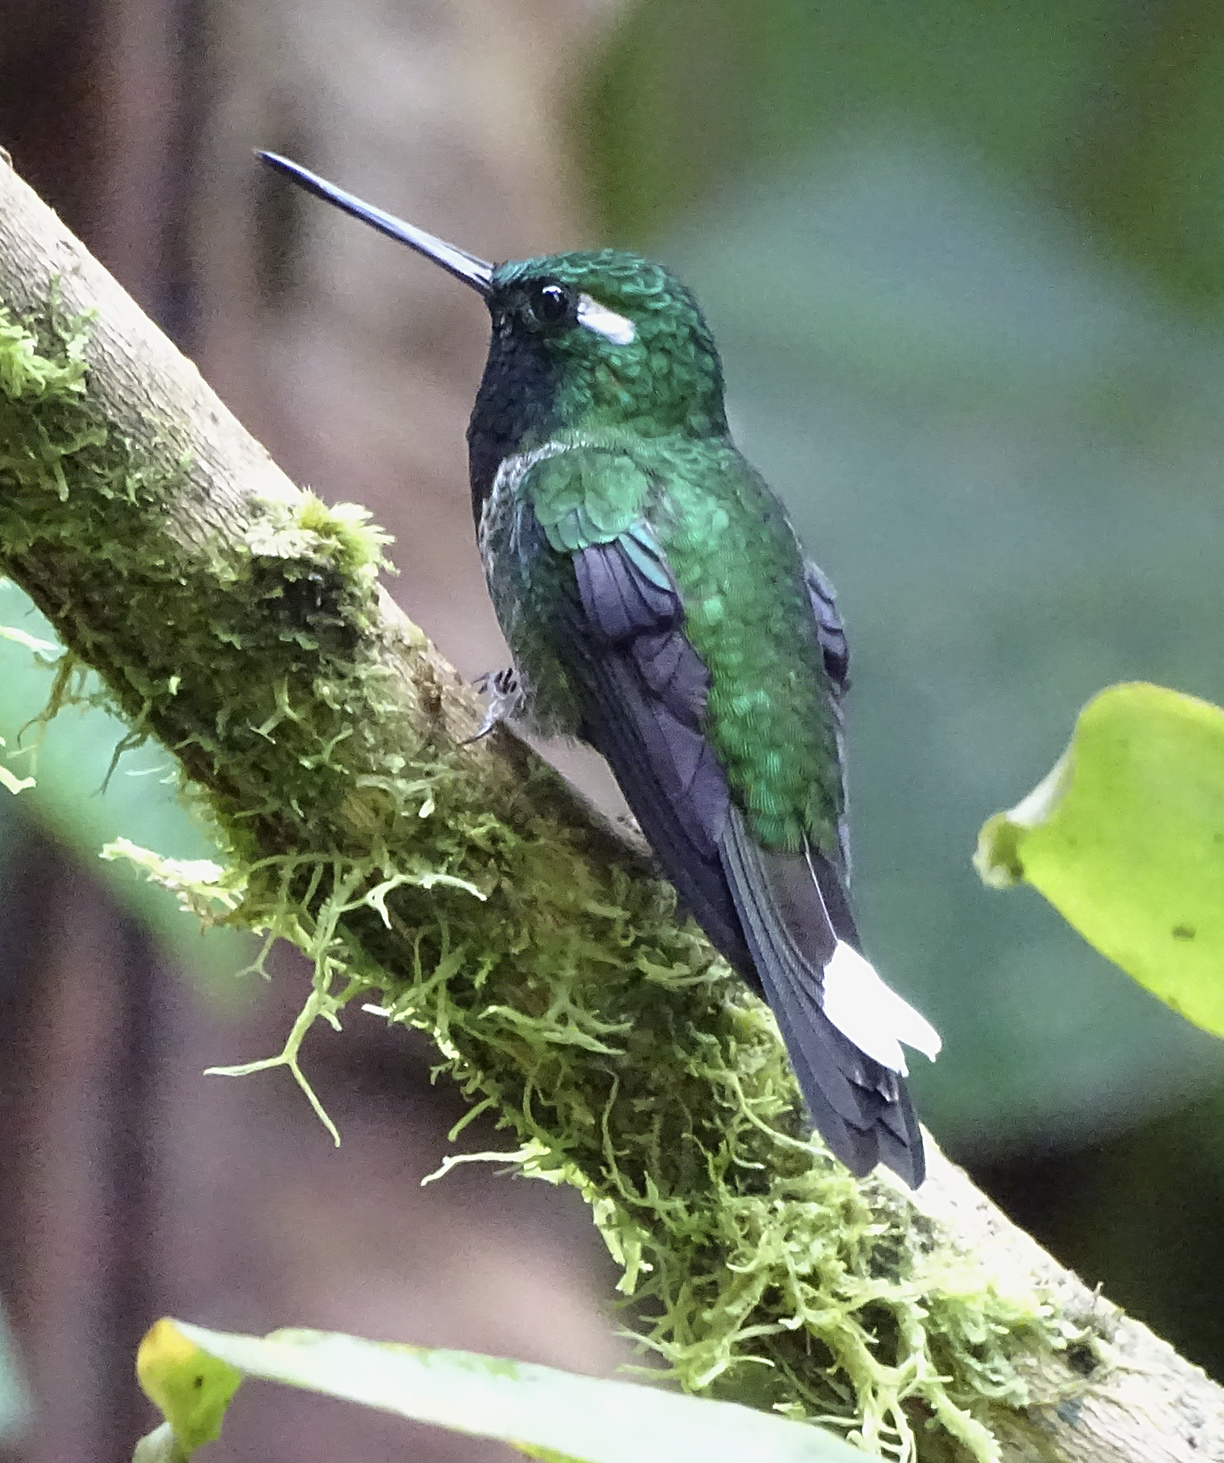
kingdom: Animalia
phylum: Chordata
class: Aves
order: Apodiformes
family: Trochilidae
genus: Urosticte
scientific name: Urosticte benjamini
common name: Purple-bibbed whitetip
